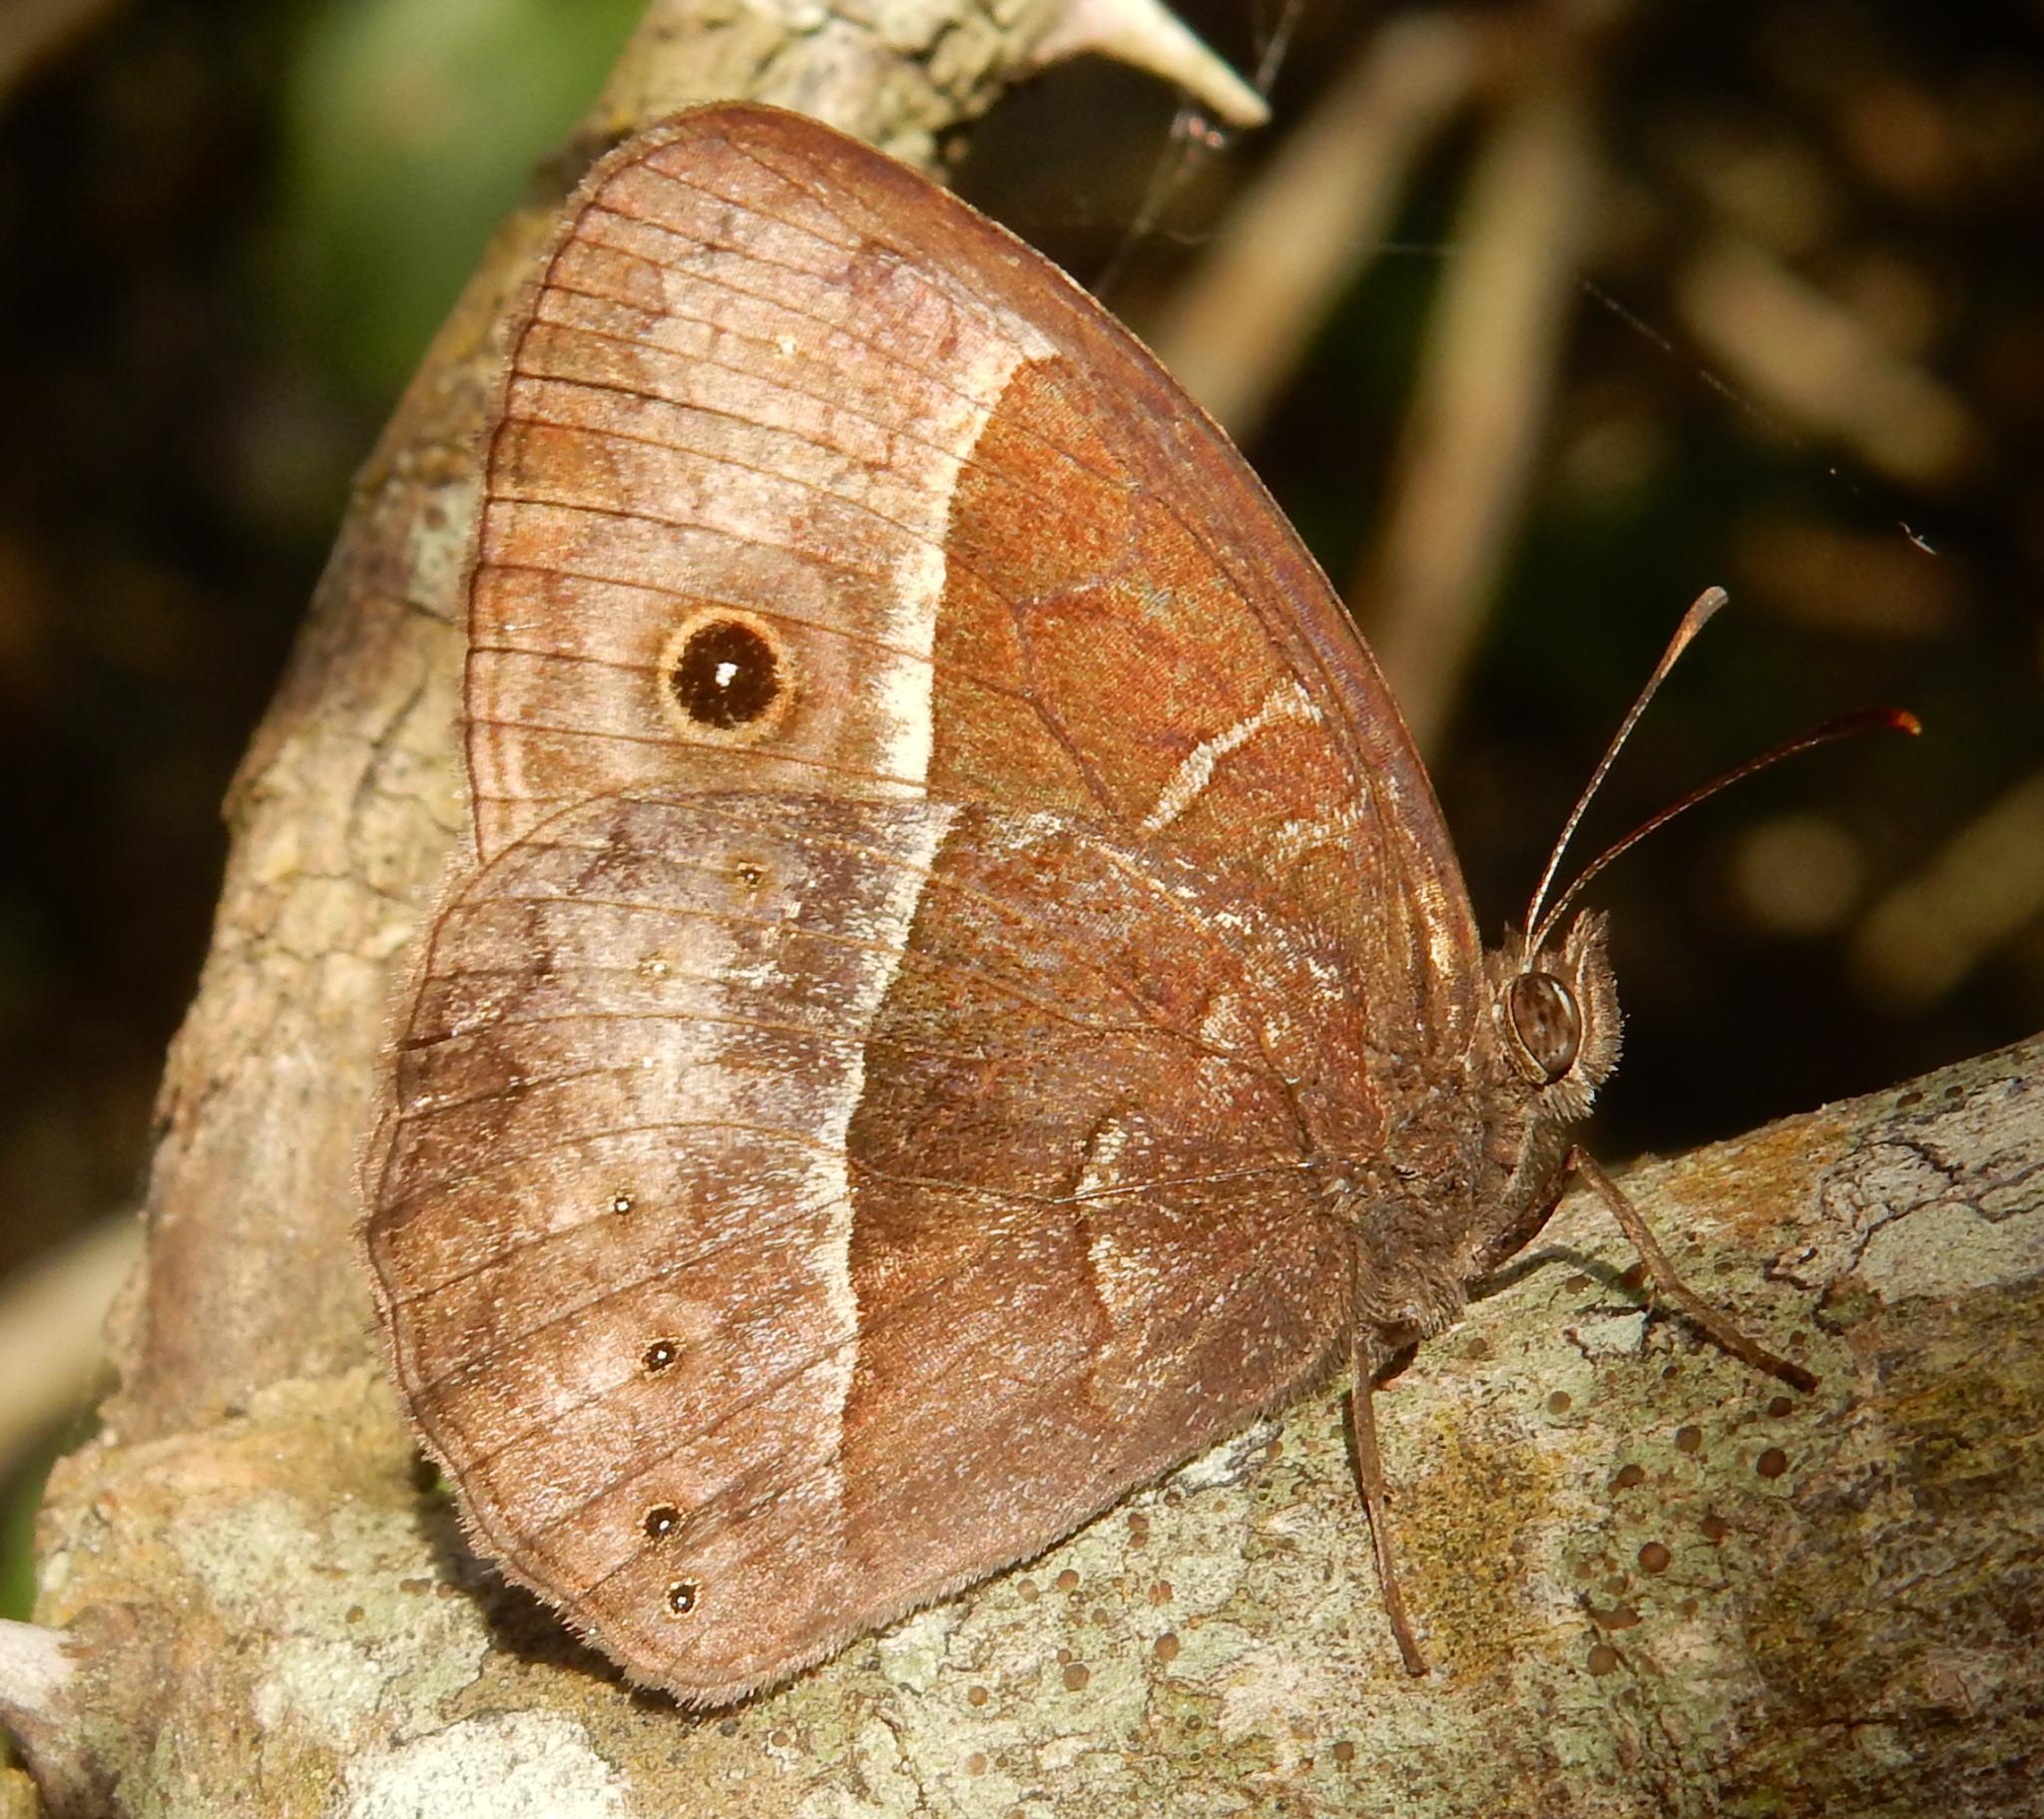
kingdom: Animalia
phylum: Arthropoda
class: Insecta
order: Lepidoptera
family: Nymphalidae
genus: Mycalesis
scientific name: Mycalesis rhacotis
